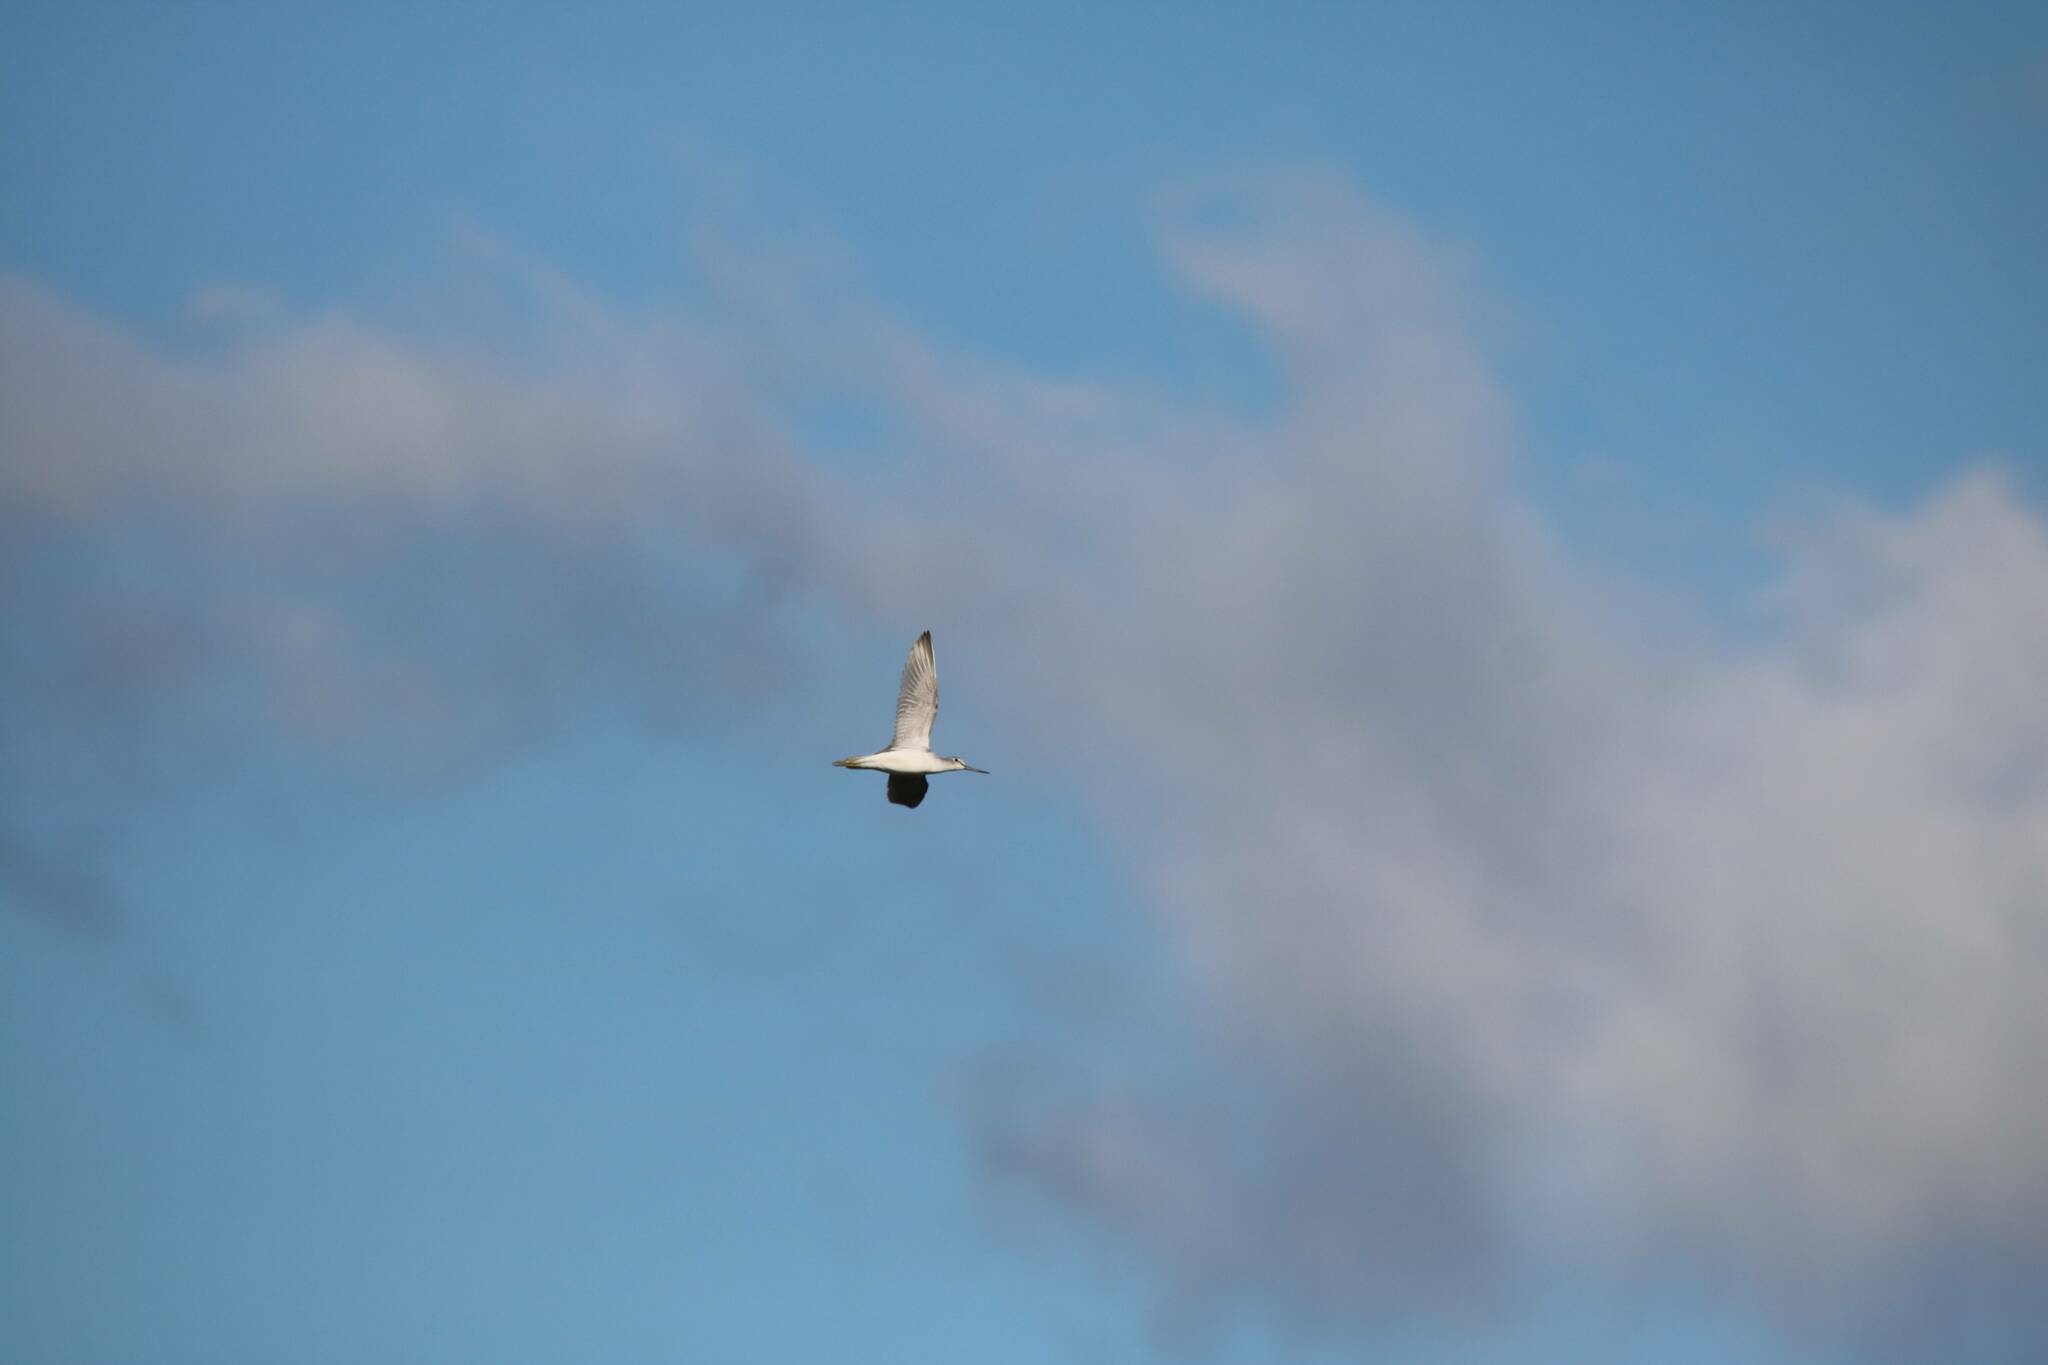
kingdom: Animalia
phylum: Chordata
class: Aves
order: Charadriiformes
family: Scolopacidae
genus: Tringa
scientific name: Tringa nebularia
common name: Common greenshank
